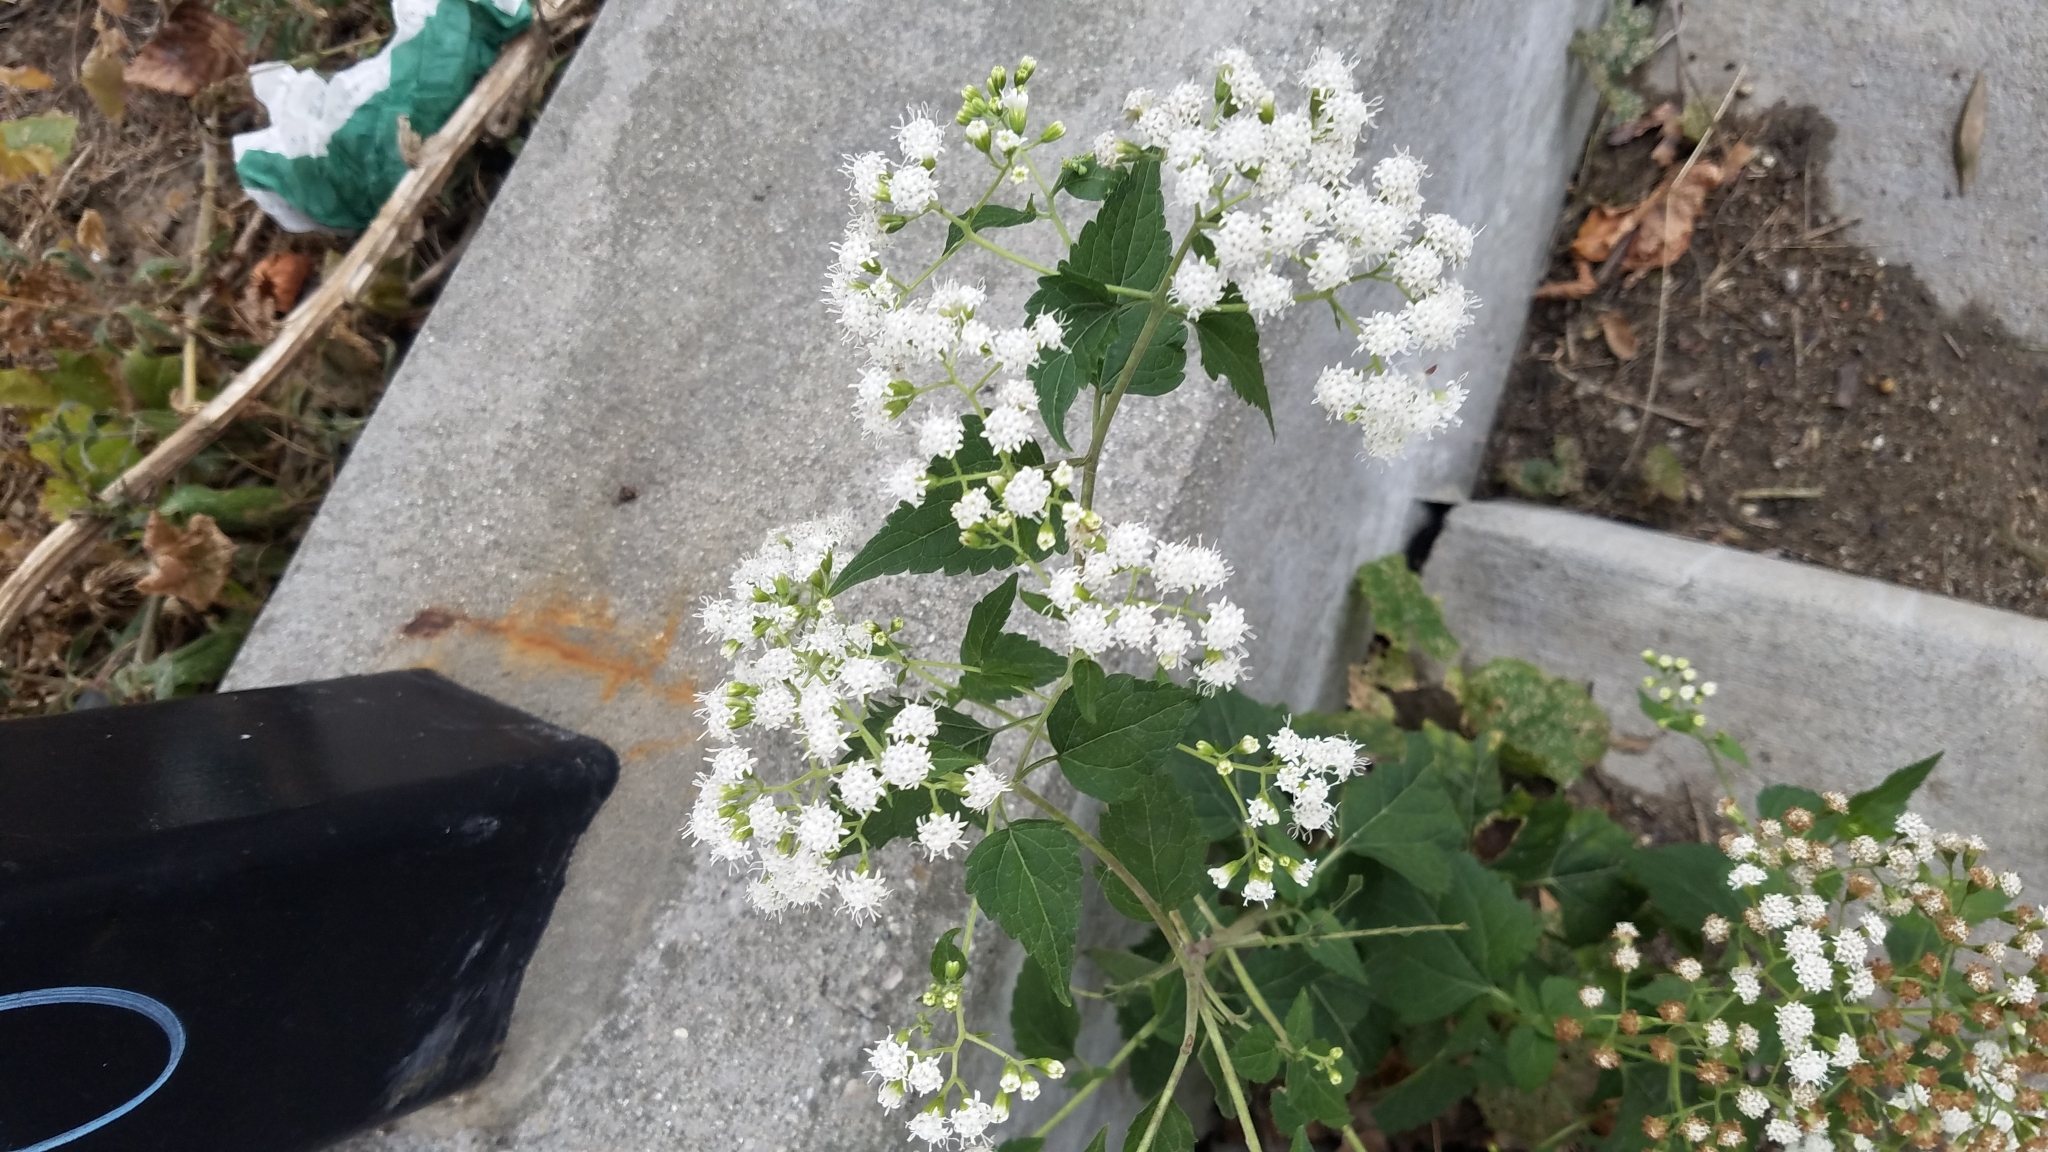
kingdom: Plantae
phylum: Tracheophyta
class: Magnoliopsida
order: Asterales
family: Asteraceae
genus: Ageratina
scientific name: Ageratina altissima
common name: White snakeroot
